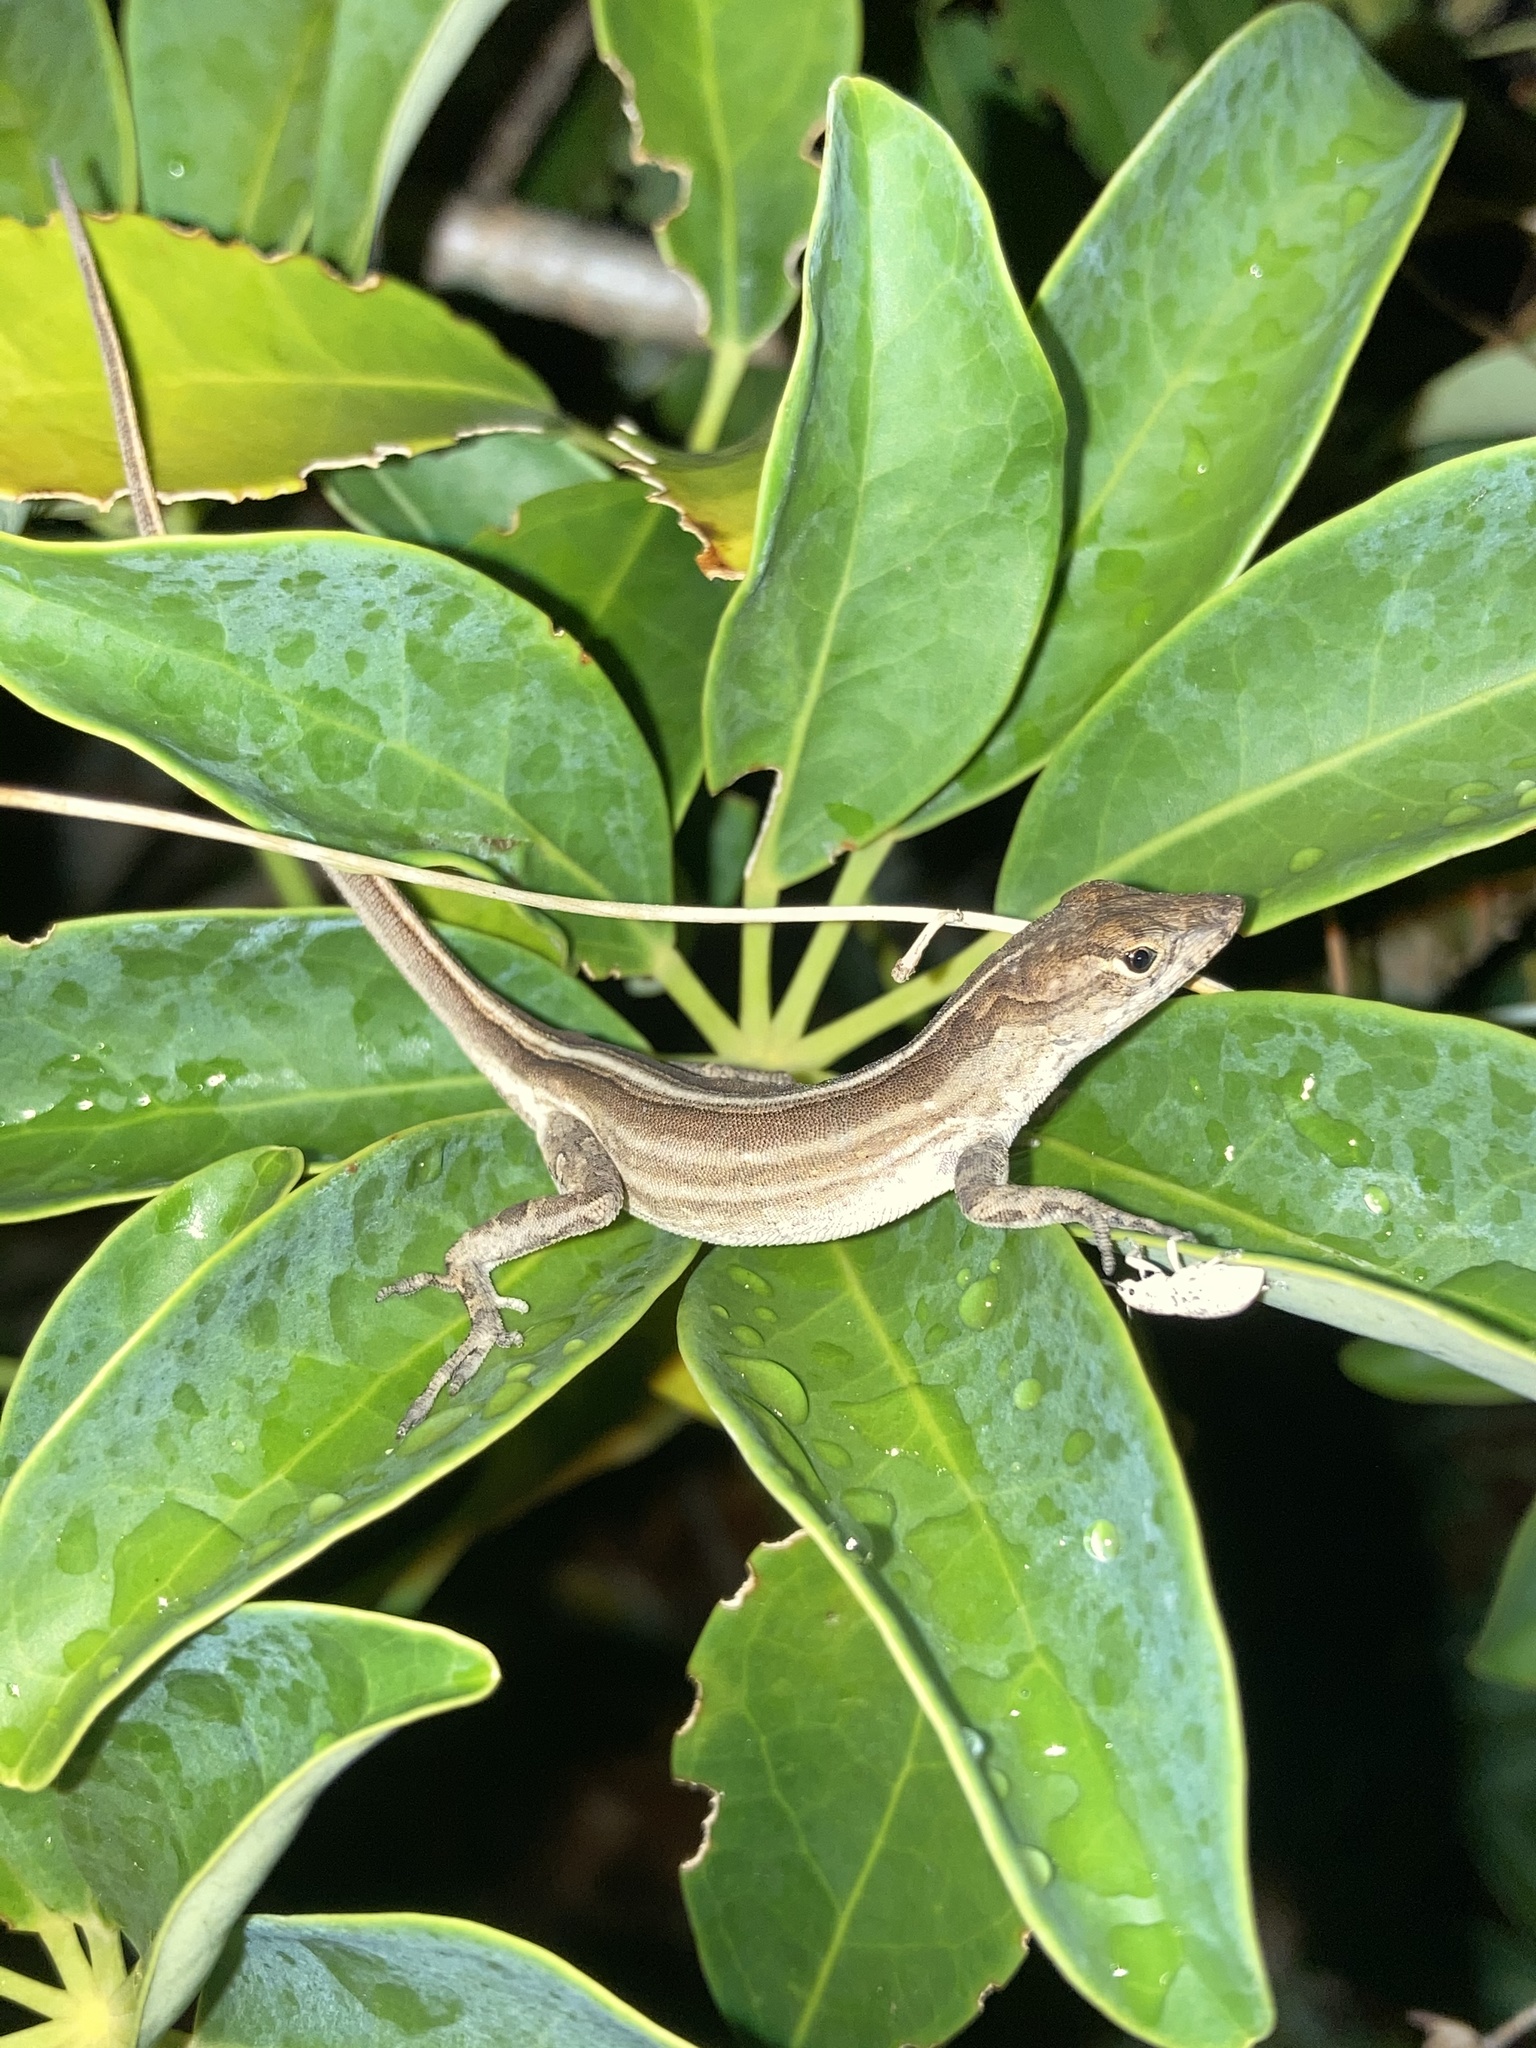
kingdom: Animalia
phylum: Chordata
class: Squamata
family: Dactyloidae
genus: Anolis
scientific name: Anolis sagrei
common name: Brown anole
